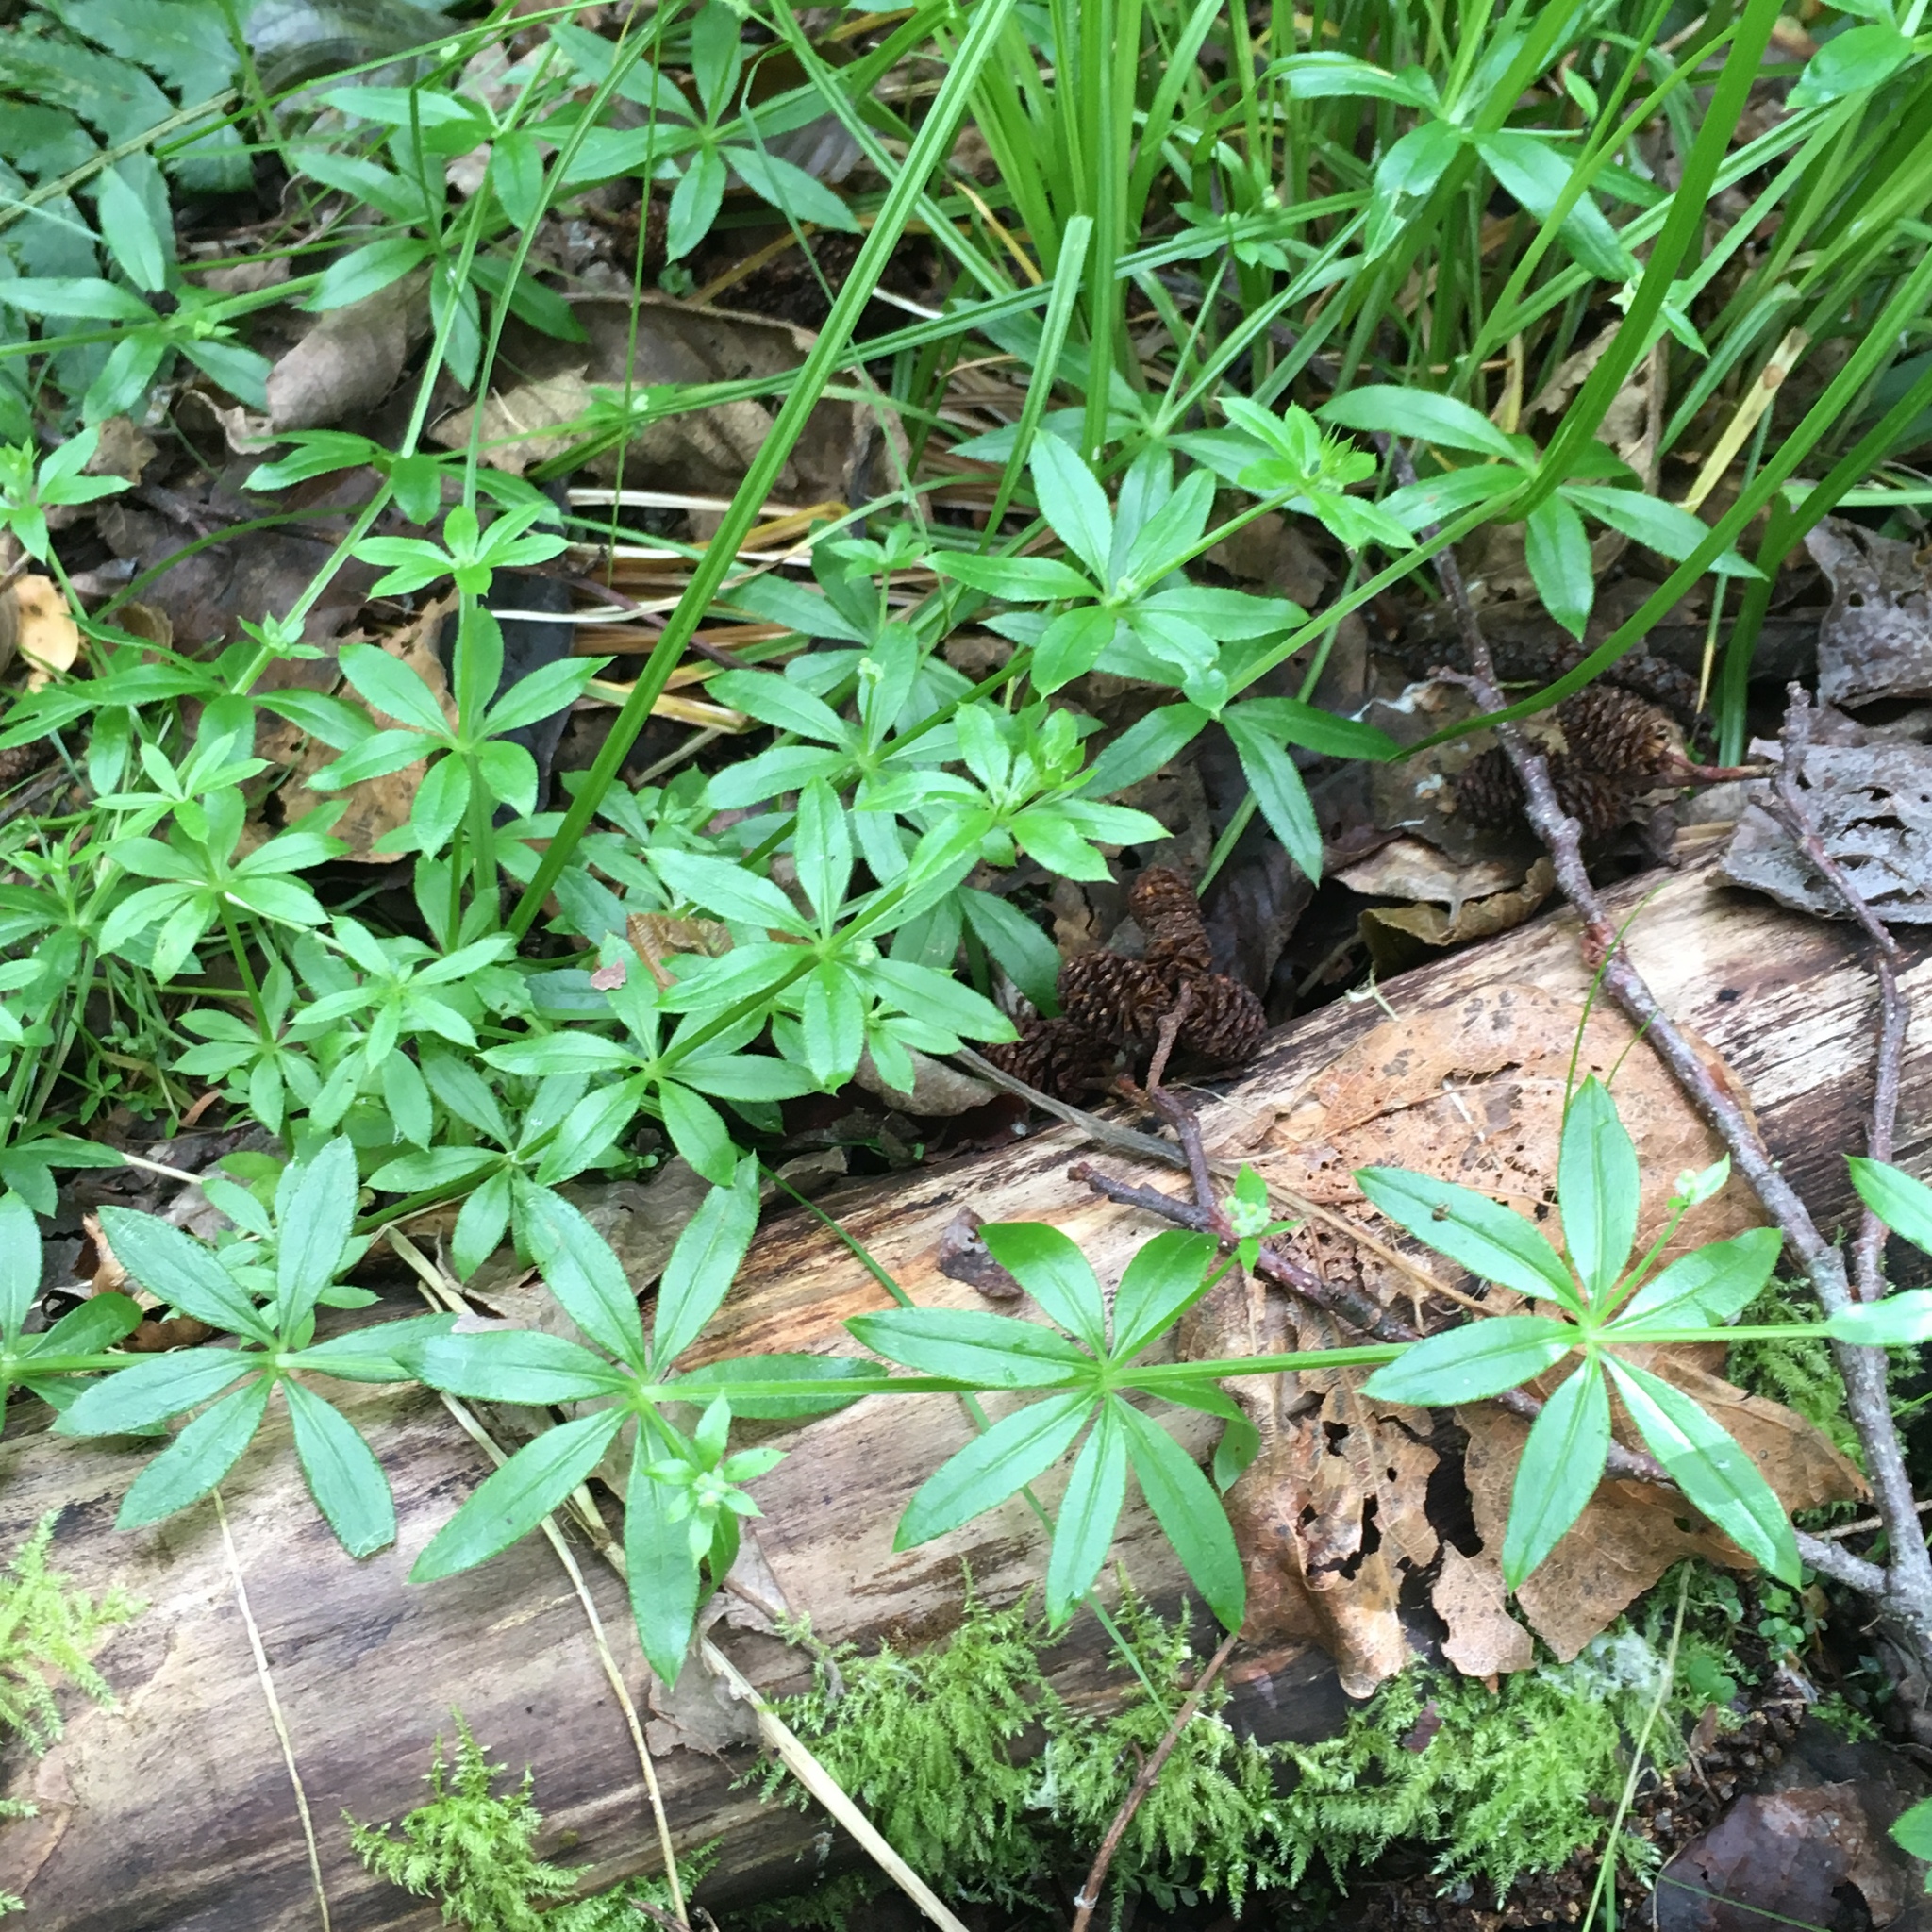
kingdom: Plantae
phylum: Tracheophyta
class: Magnoliopsida
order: Gentianales
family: Rubiaceae
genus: Galium
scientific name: Galium triflorum
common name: Fragrant bedstraw
